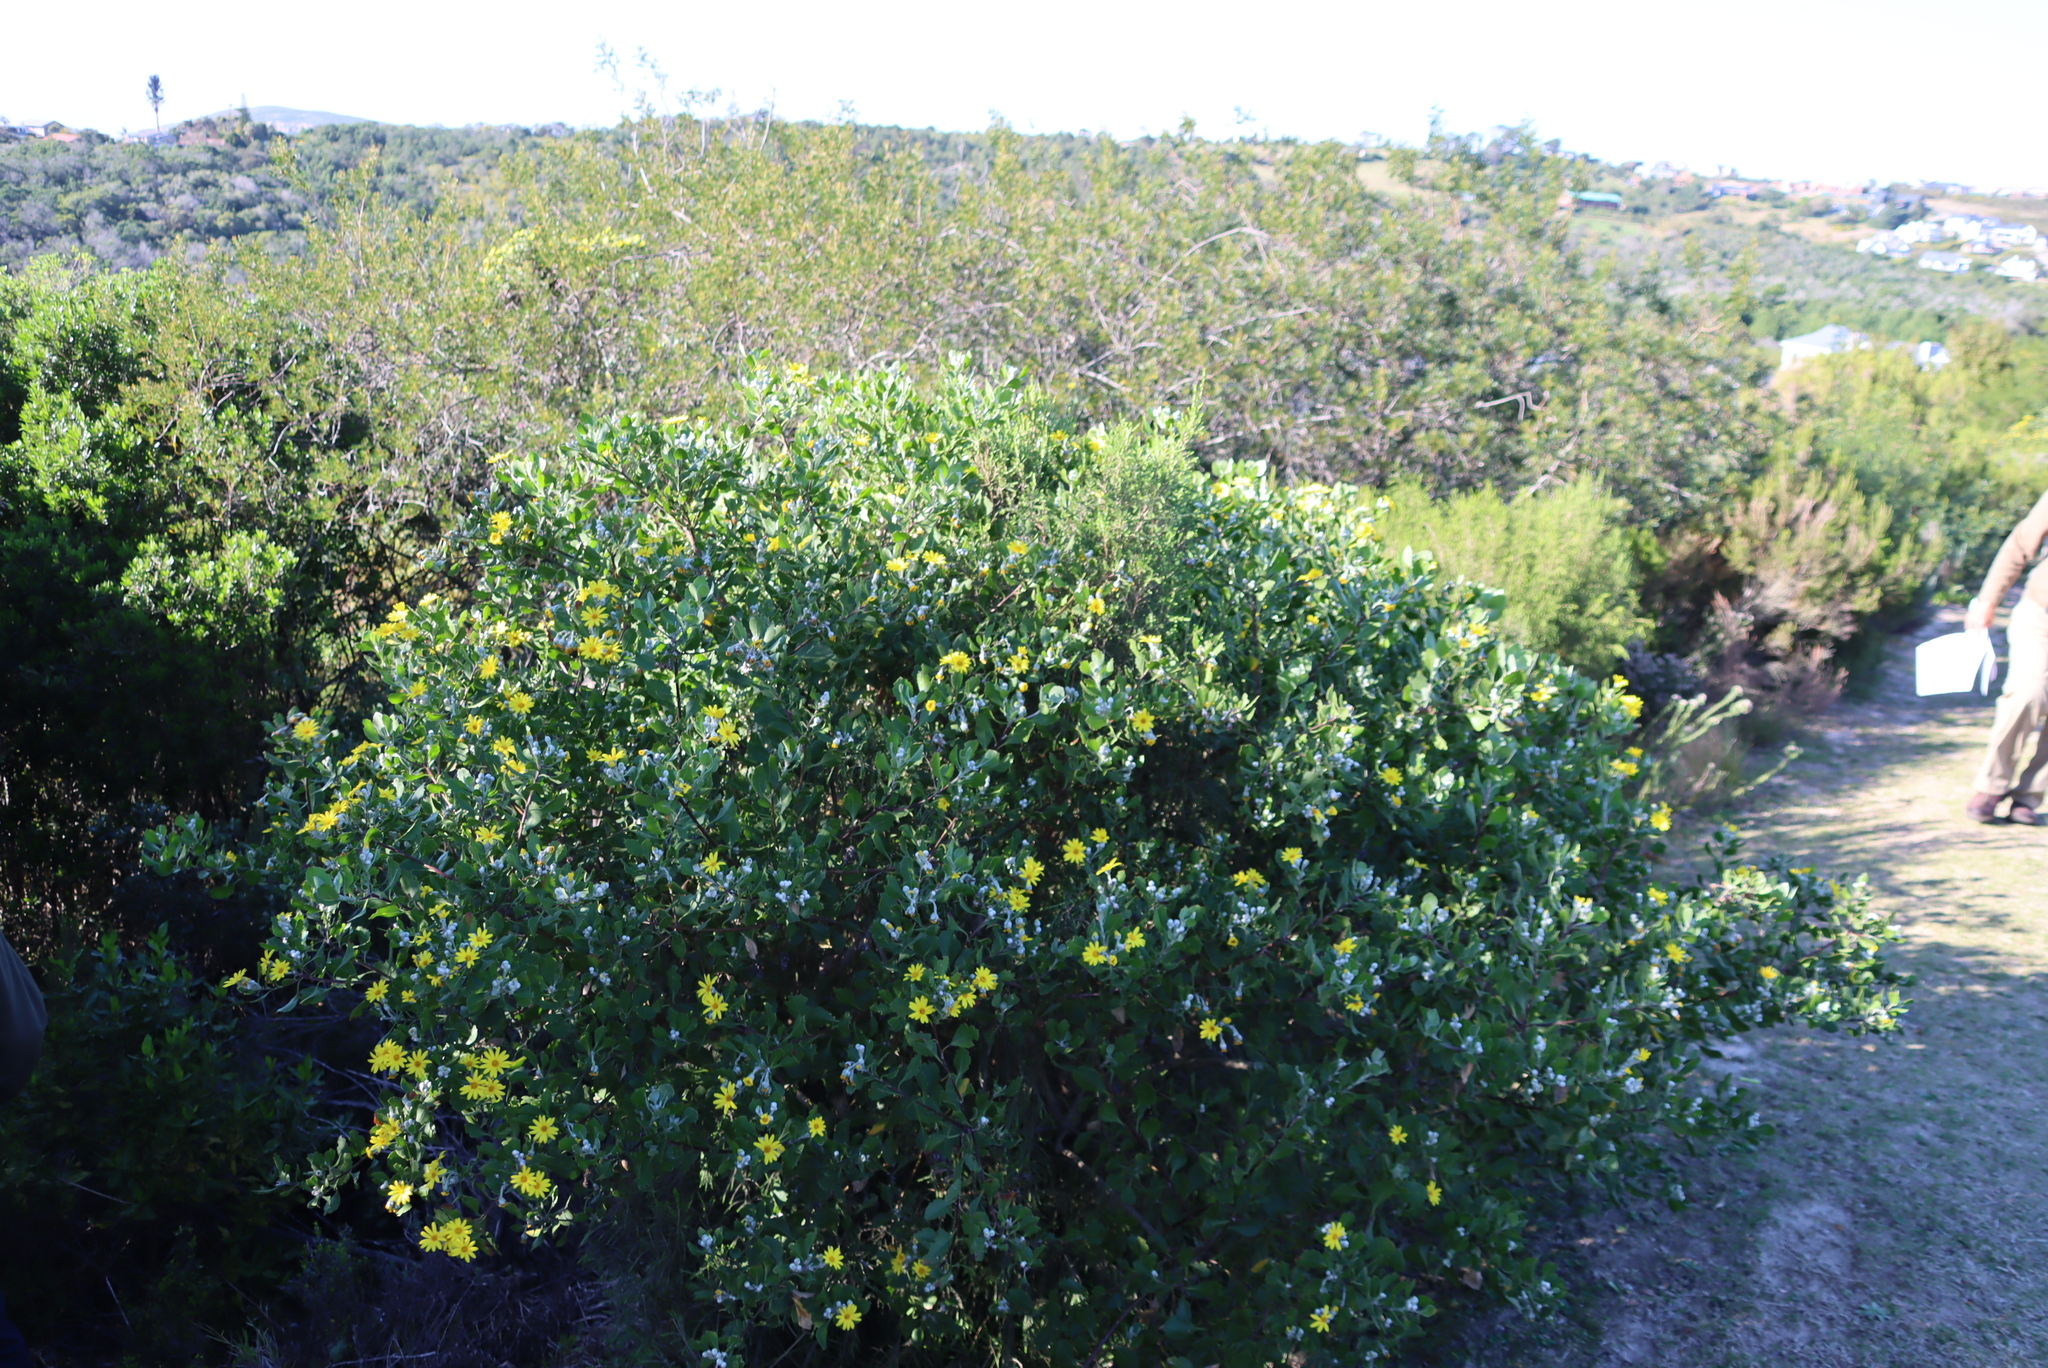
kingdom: Plantae
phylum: Tracheophyta
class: Magnoliopsida
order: Asterales
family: Asteraceae
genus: Osteospermum
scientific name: Osteospermum moniliferum
